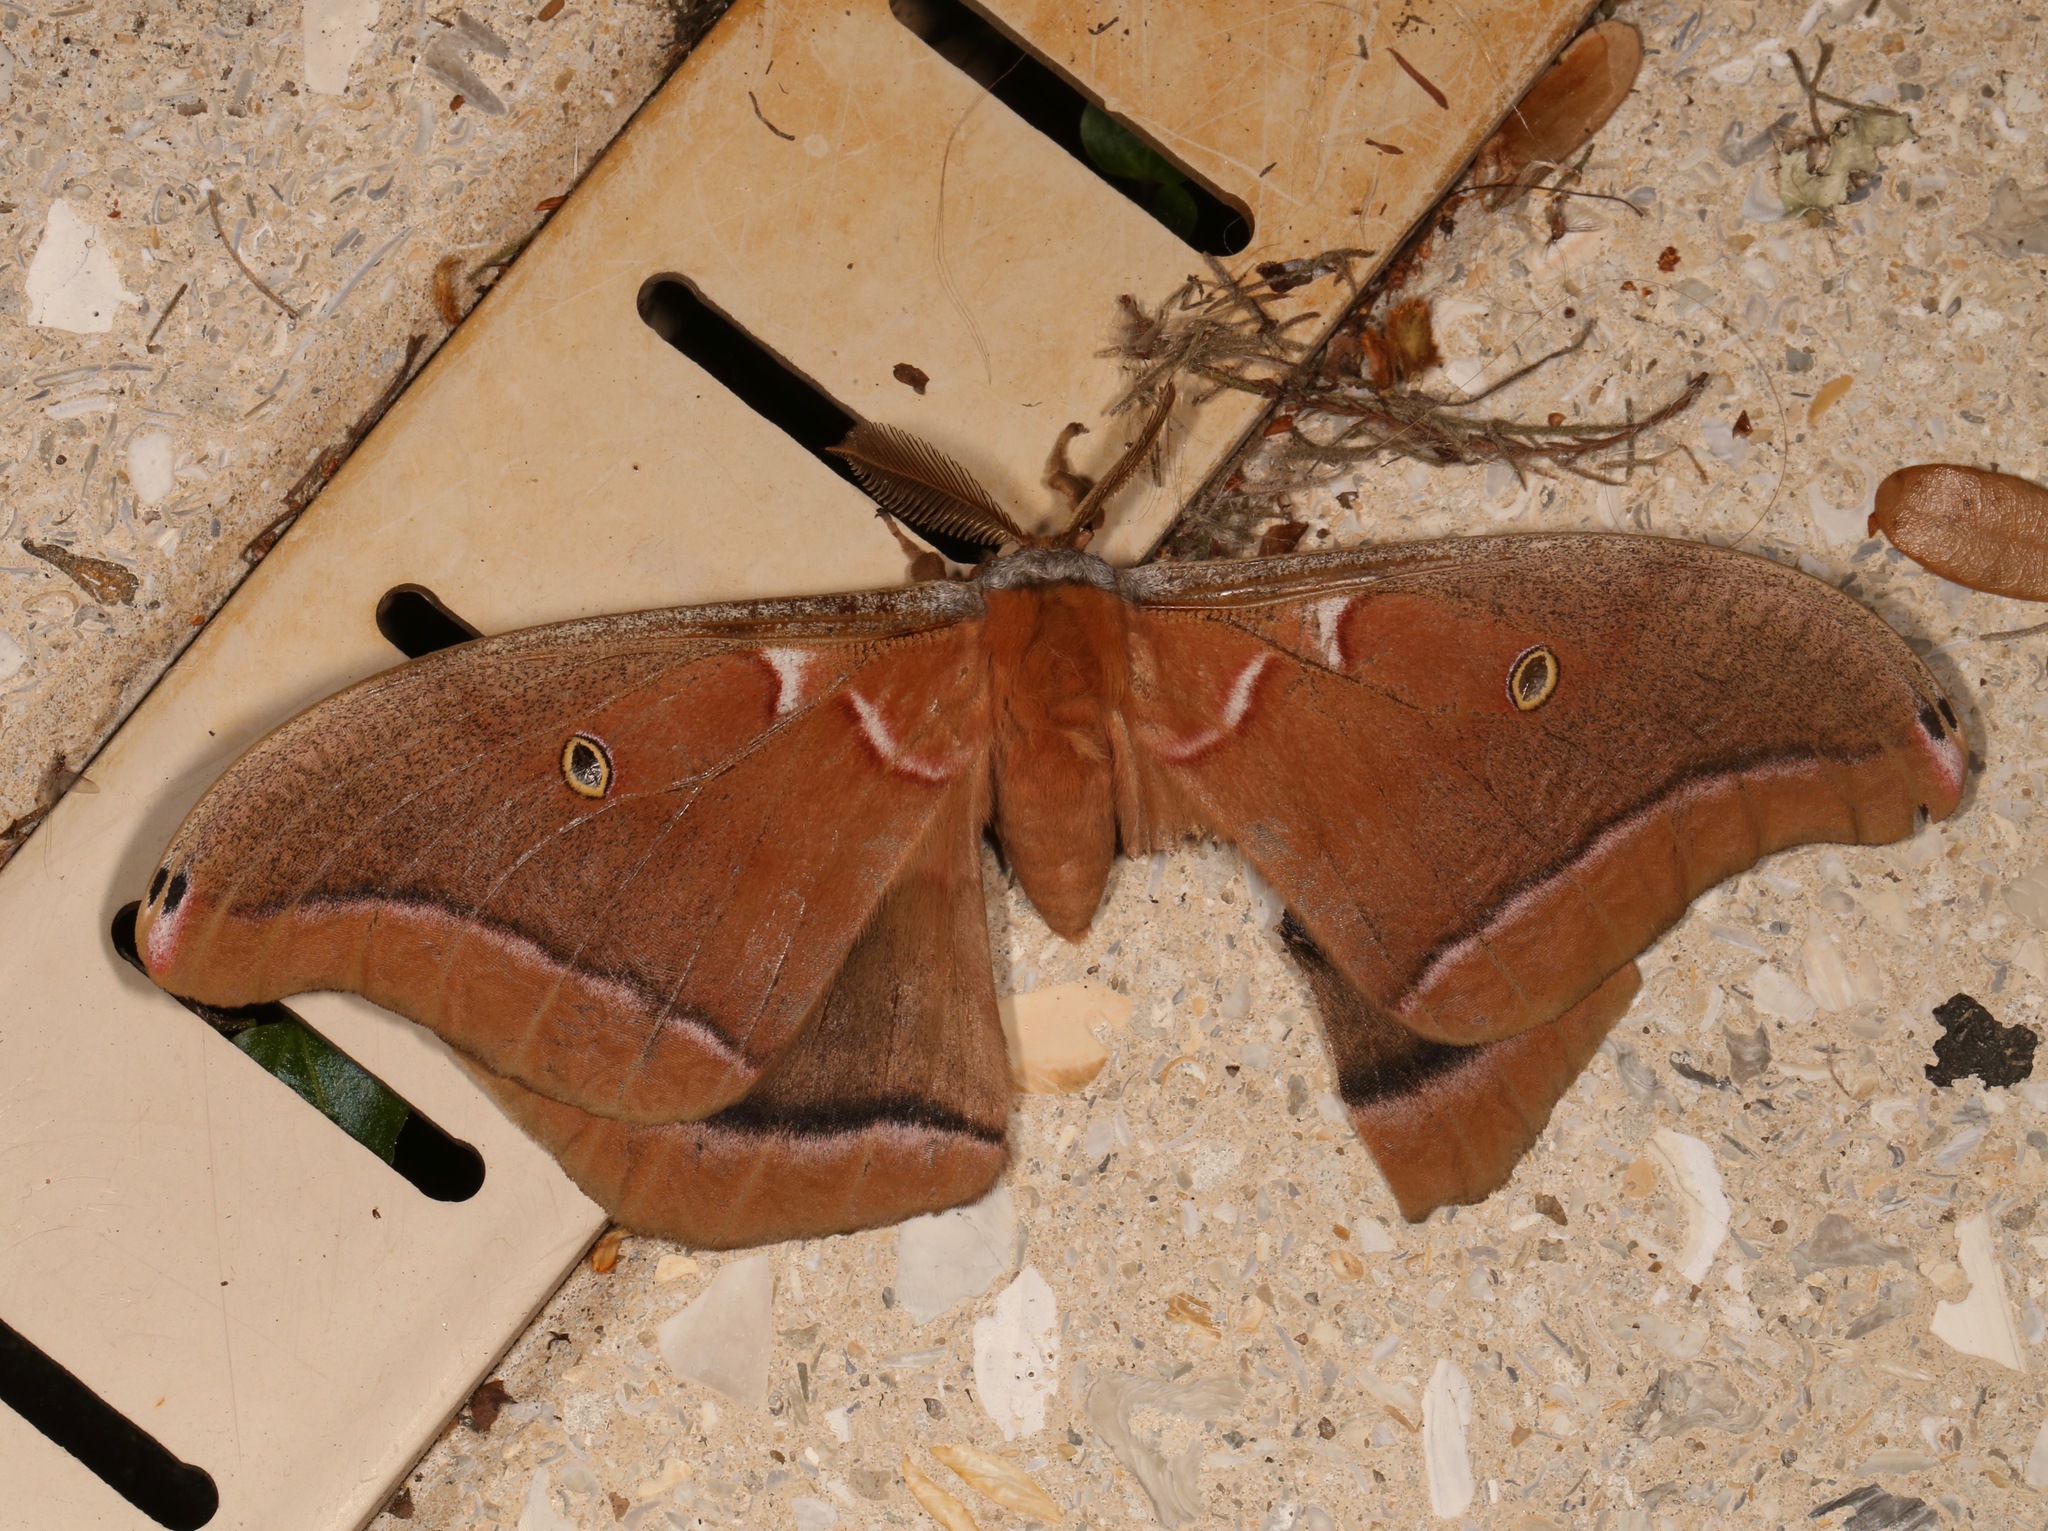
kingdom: Animalia
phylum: Arthropoda
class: Insecta
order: Lepidoptera
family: Saturniidae
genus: Antheraea
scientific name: Antheraea polyphemus
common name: Polyphemus moth
